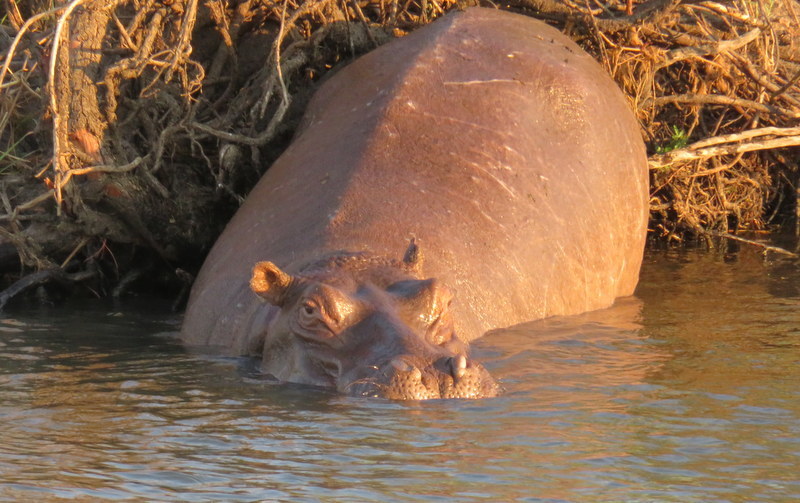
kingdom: Animalia
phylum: Chordata
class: Mammalia
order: Artiodactyla
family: Hippopotamidae
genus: Hippopotamus
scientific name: Hippopotamus amphibius
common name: Common hippopotamus
